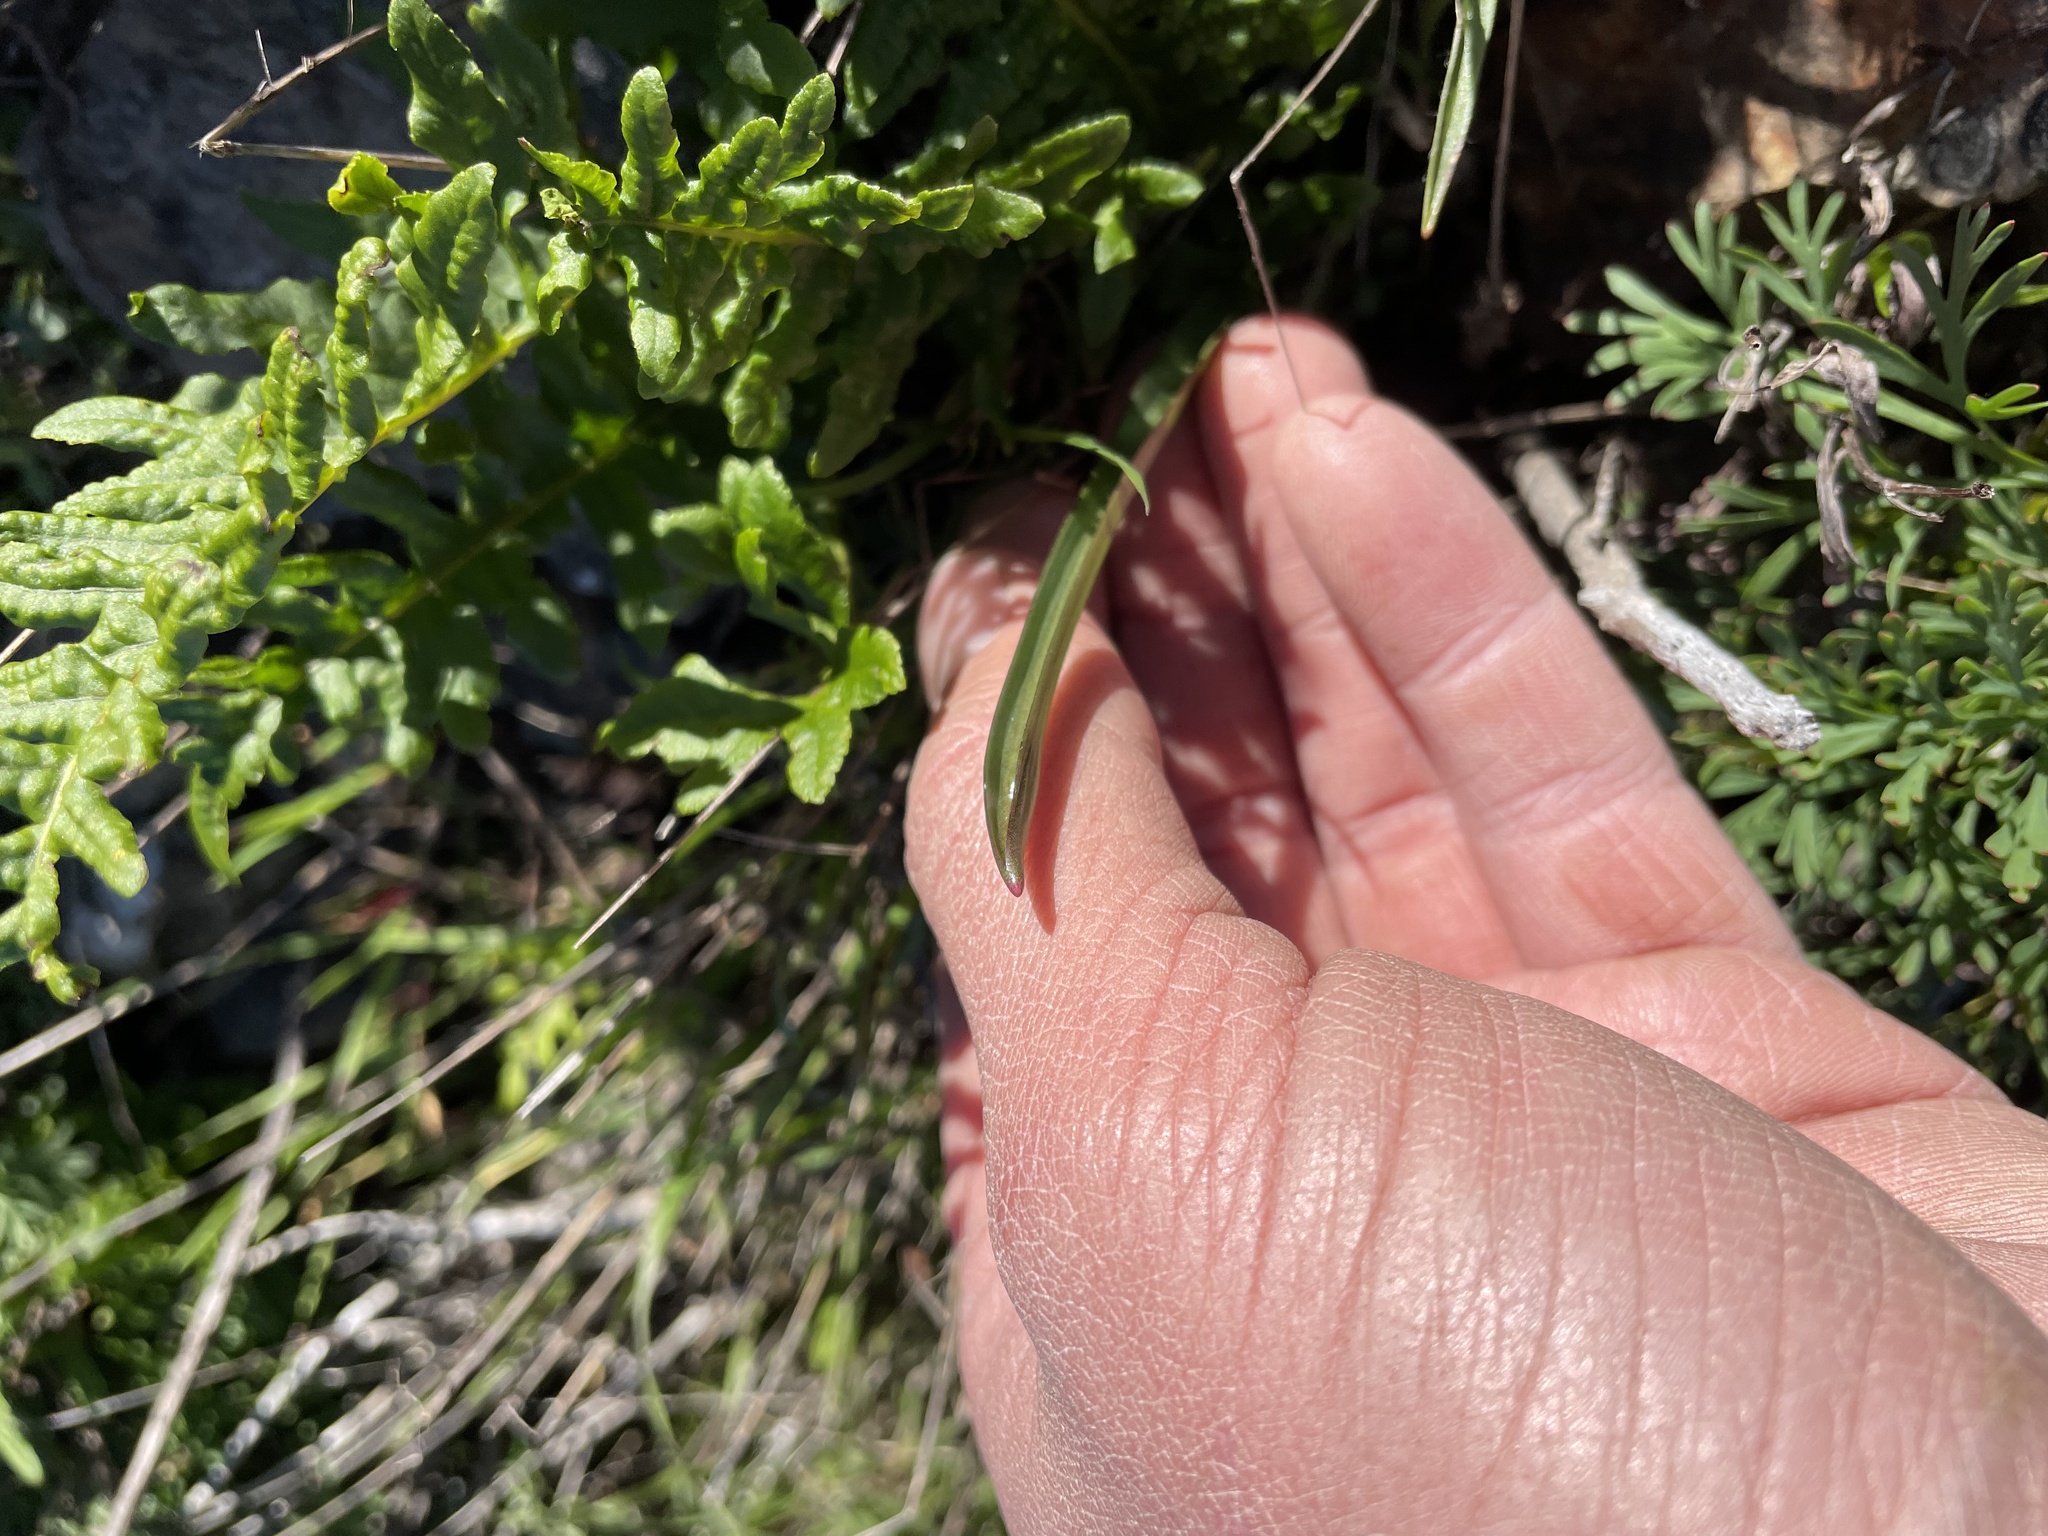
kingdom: Plantae
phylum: Tracheophyta
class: Liliopsida
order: Asparagales
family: Asparagaceae
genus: Dipterostemon
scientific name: Dipterostemon capitatus
